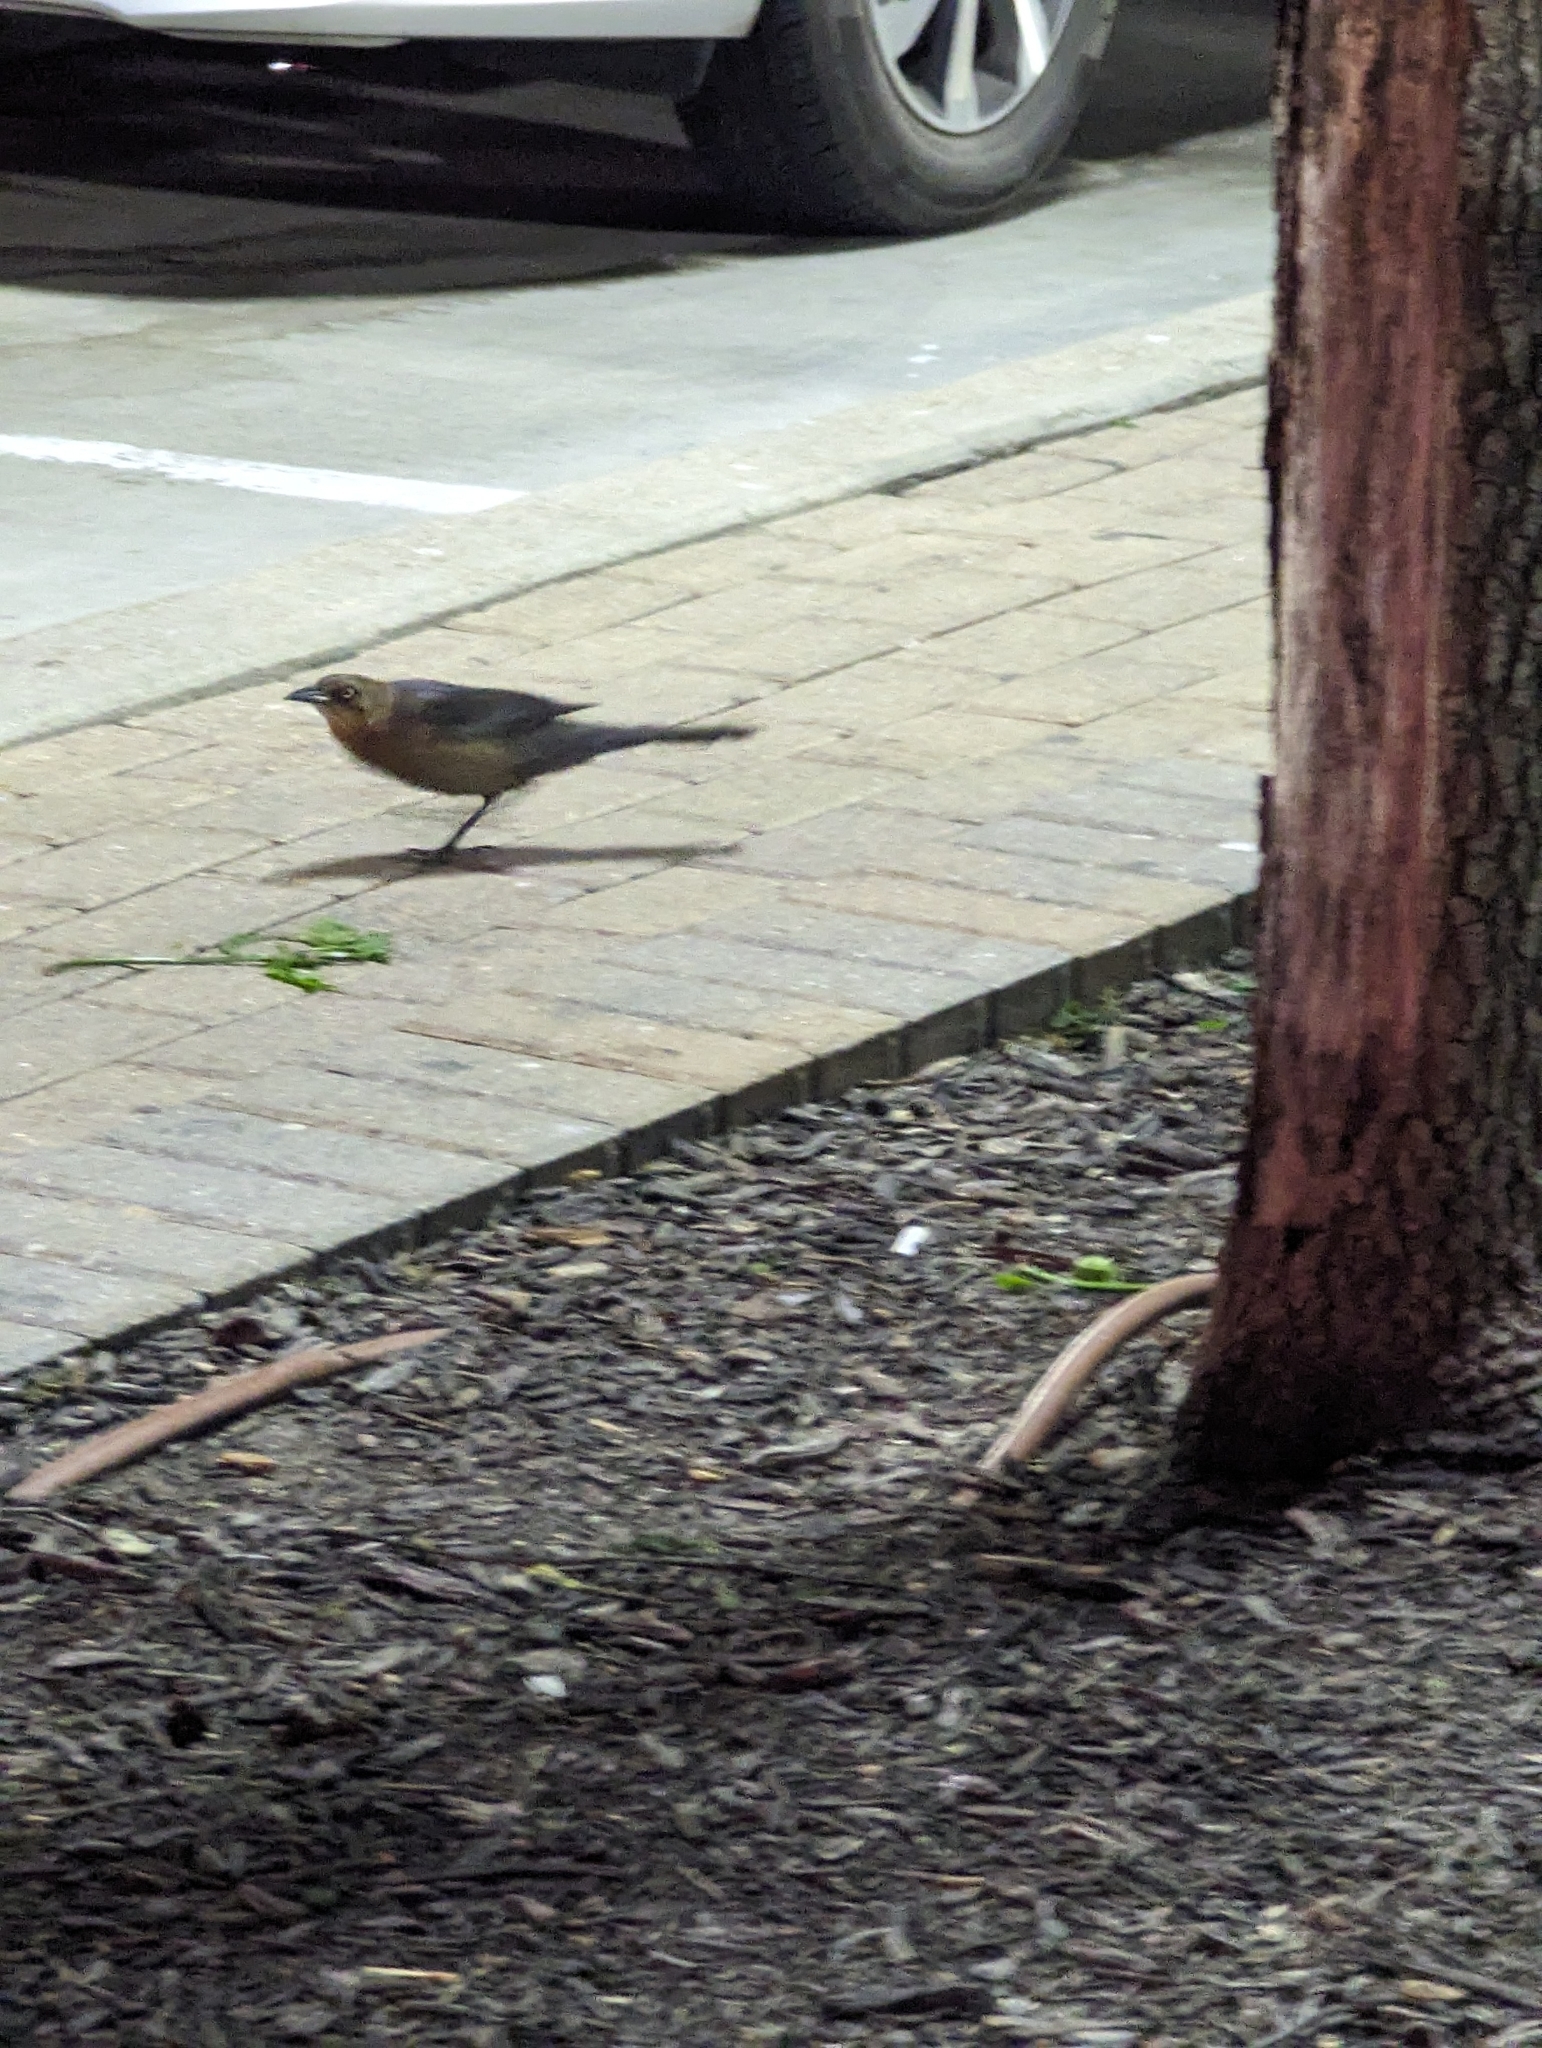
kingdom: Animalia
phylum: Chordata
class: Aves
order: Passeriformes
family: Icteridae
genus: Quiscalus
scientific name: Quiscalus mexicanus
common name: Great-tailed grackle
